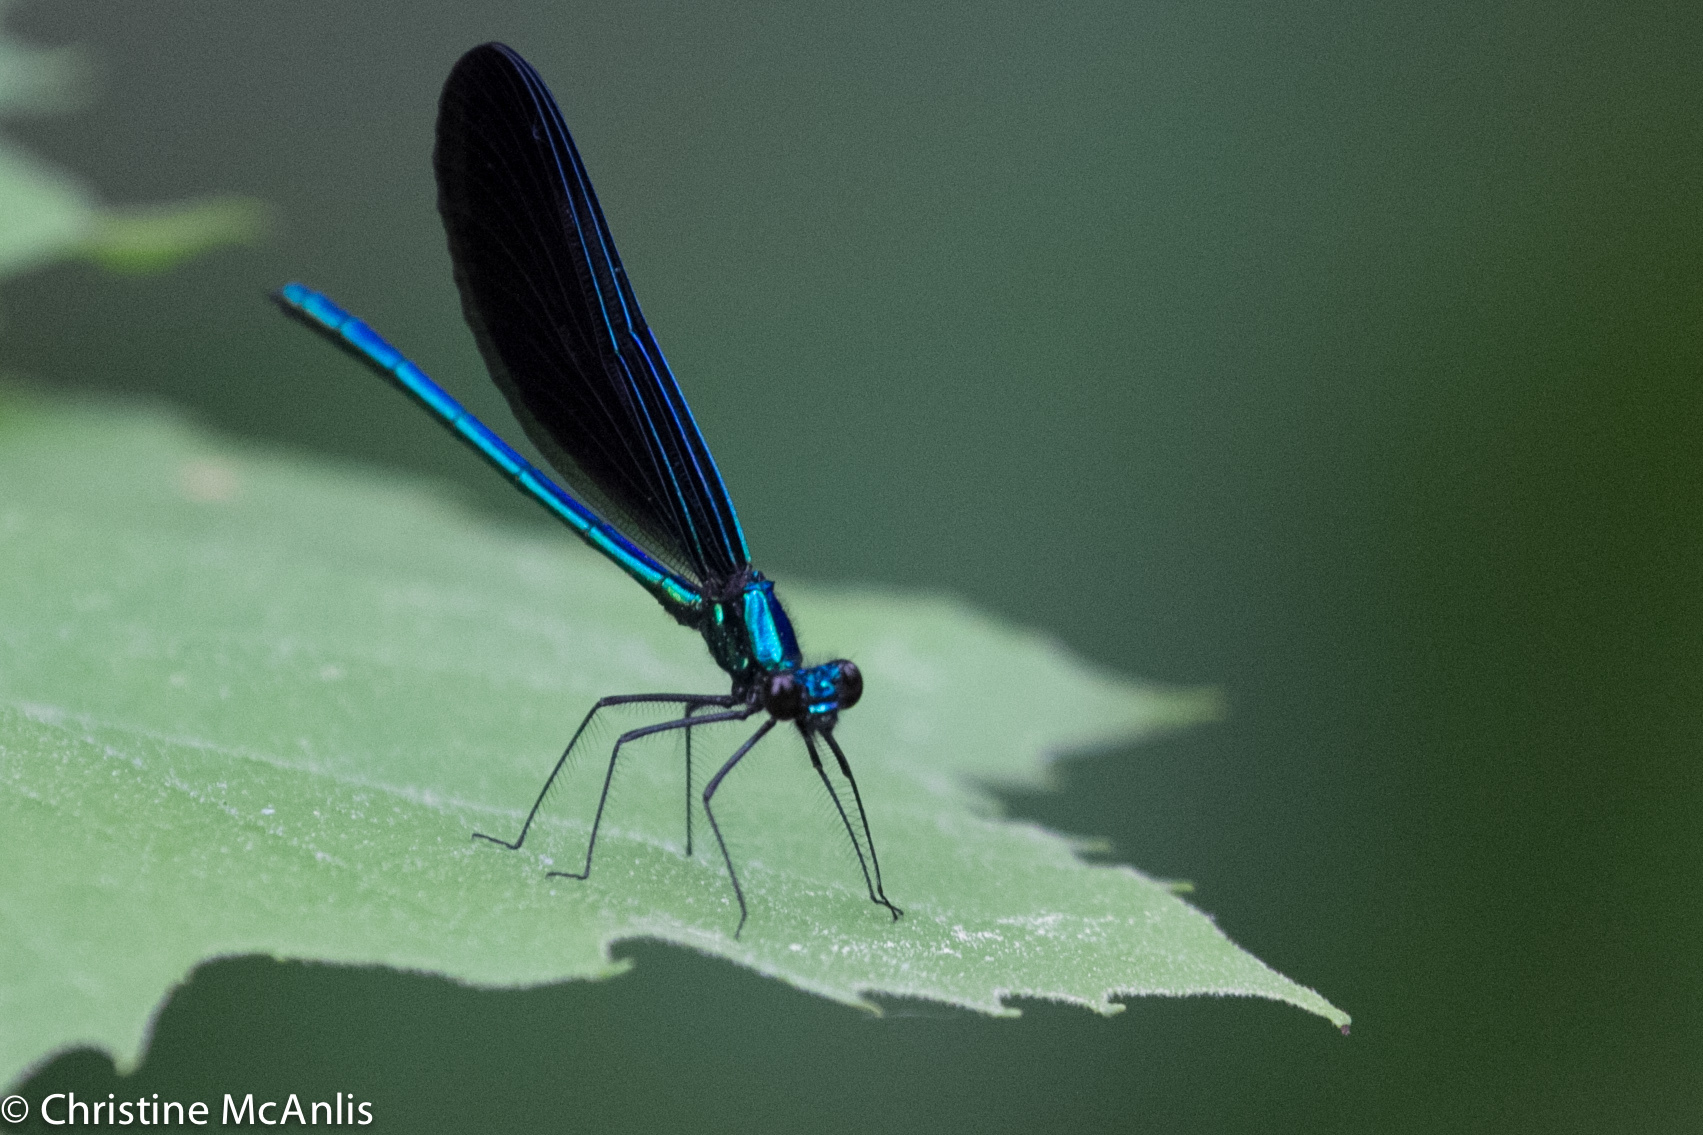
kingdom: Animalia
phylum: Arthropoda
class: Insecta
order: Odonata
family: Calopterygidae
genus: Calopteryx
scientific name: Calopteryx maculata
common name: Ebony jewelwing
